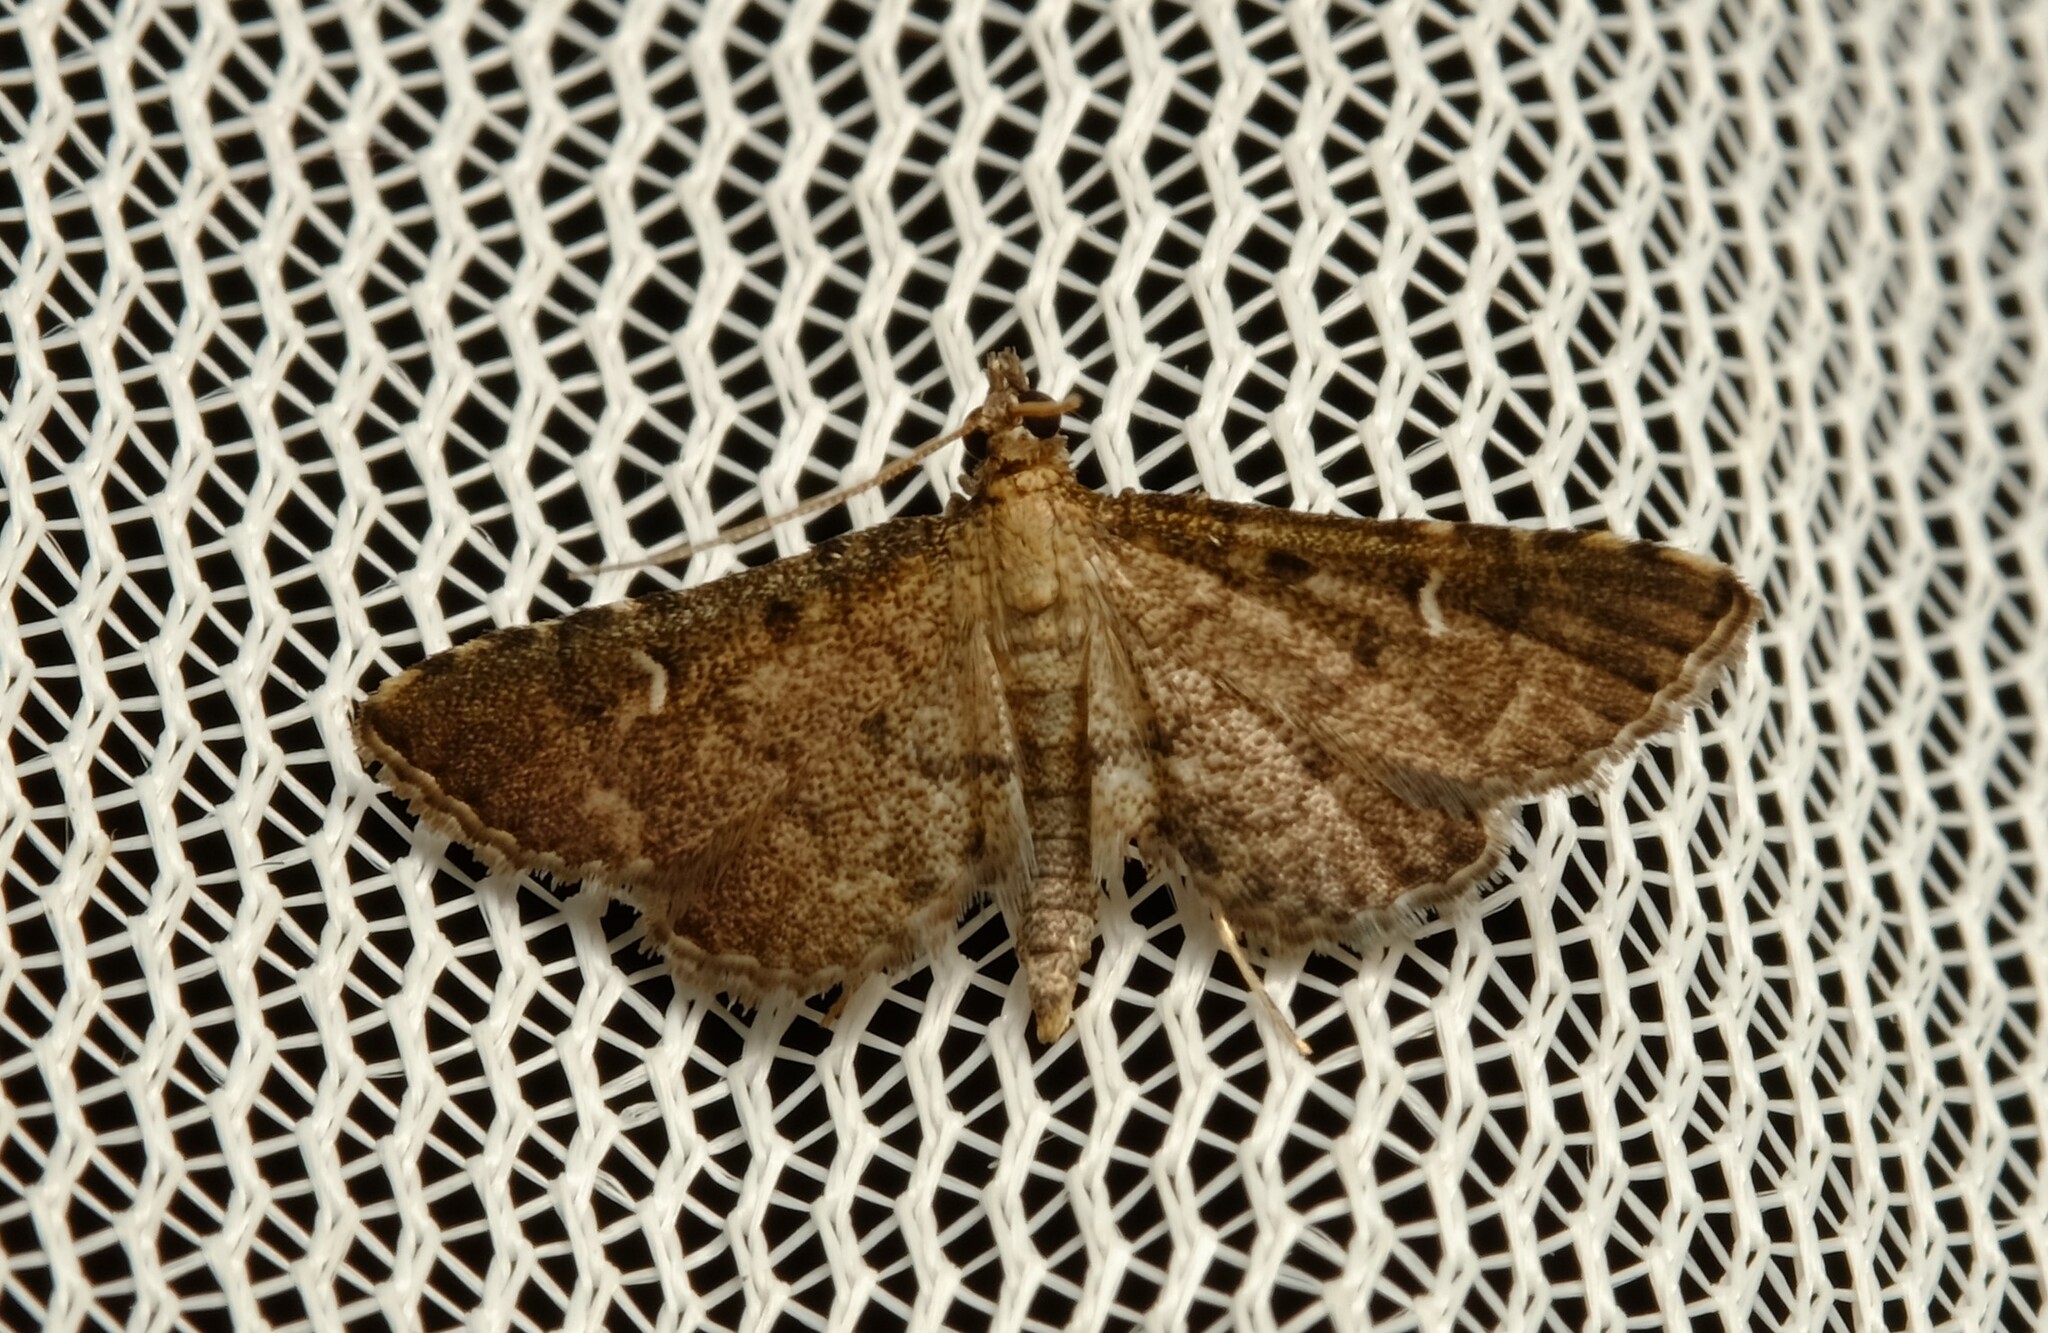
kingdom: Animalia
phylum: Arthropoda
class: Insecta
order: Lepidoptera
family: Crambidae
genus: Metasia
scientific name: Metasia capnochroa
